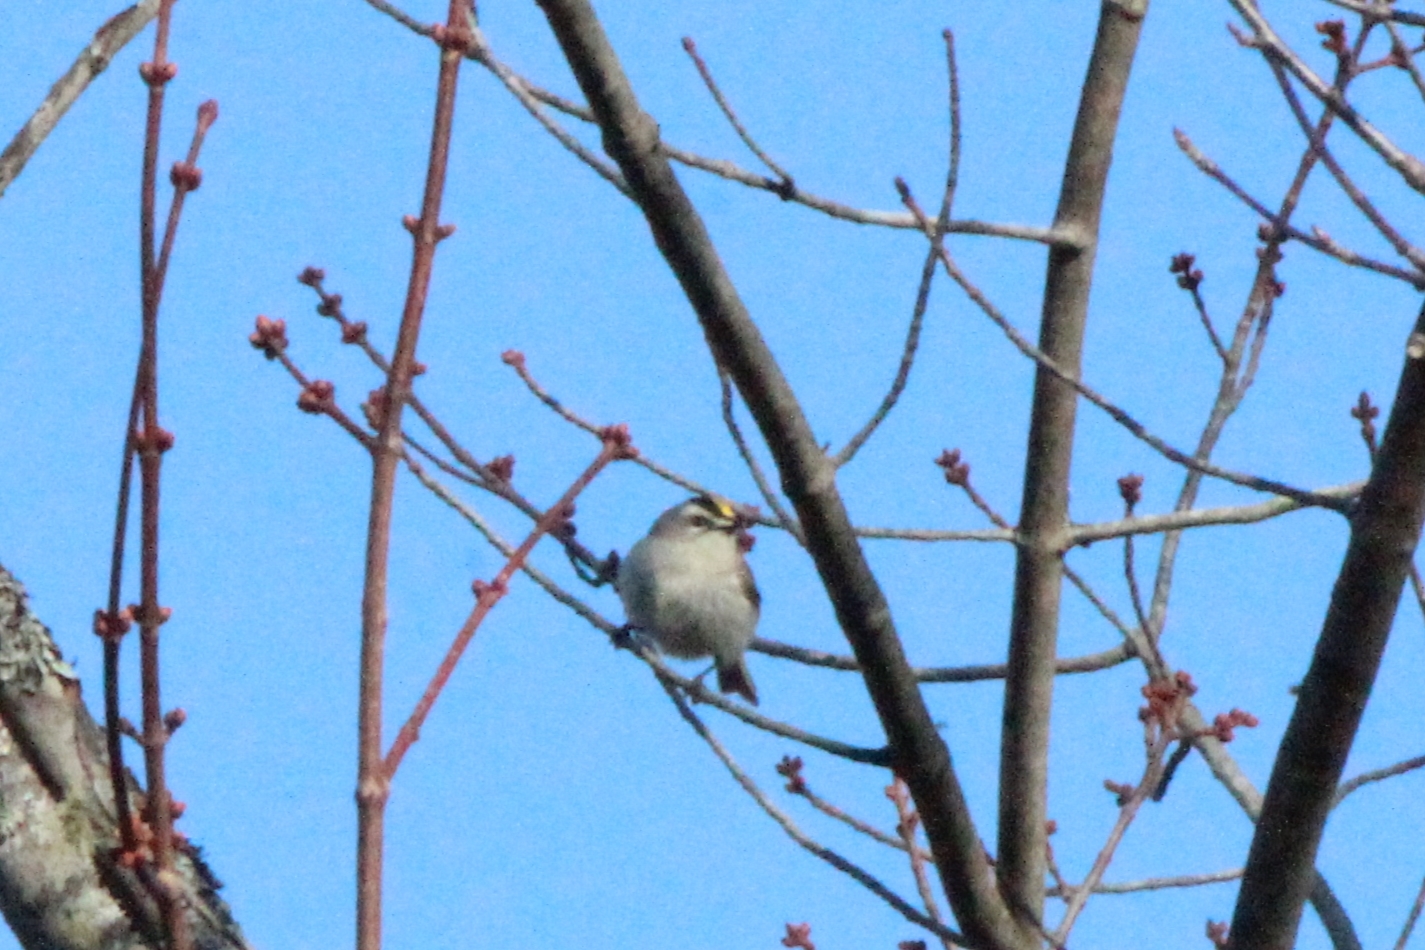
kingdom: Animalia
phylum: Chordata
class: Aves
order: Passeriformes
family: Regulidae
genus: Regulus
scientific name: Regulus satrapa
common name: Golden-crowned kinglet
